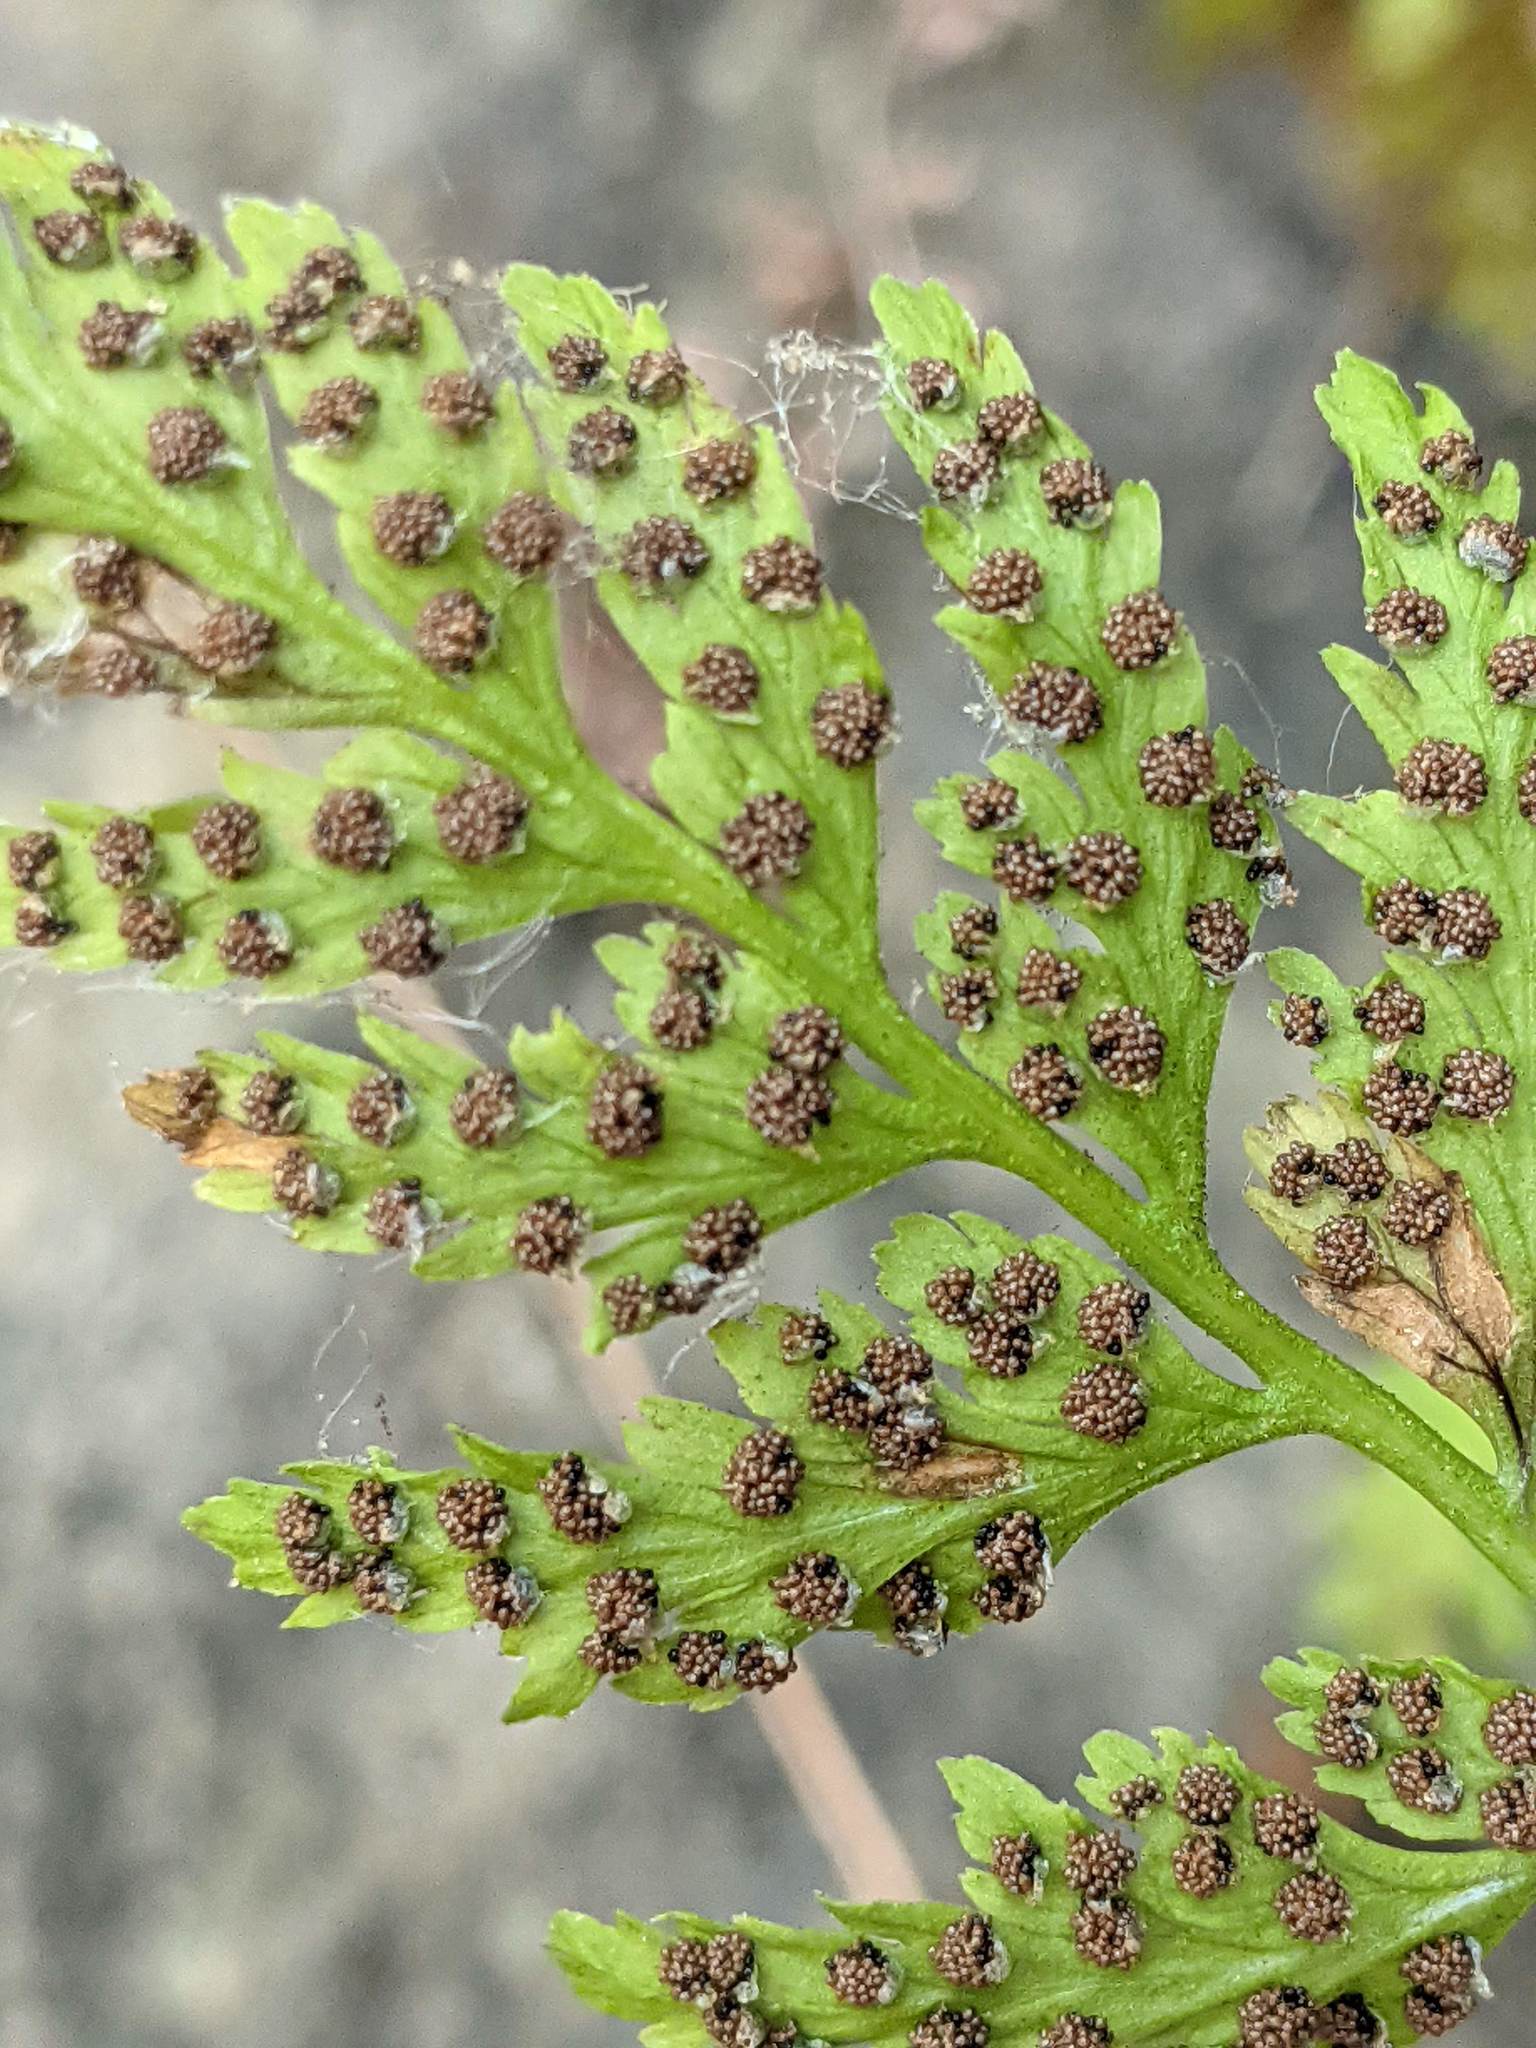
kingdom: Plantae
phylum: Tracheophyta
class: Polypodiopsida
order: Polypodiales
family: Cystopteridaceae
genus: Cystopteris
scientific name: Cystopteris fragilis
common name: Brittle bladder fern
